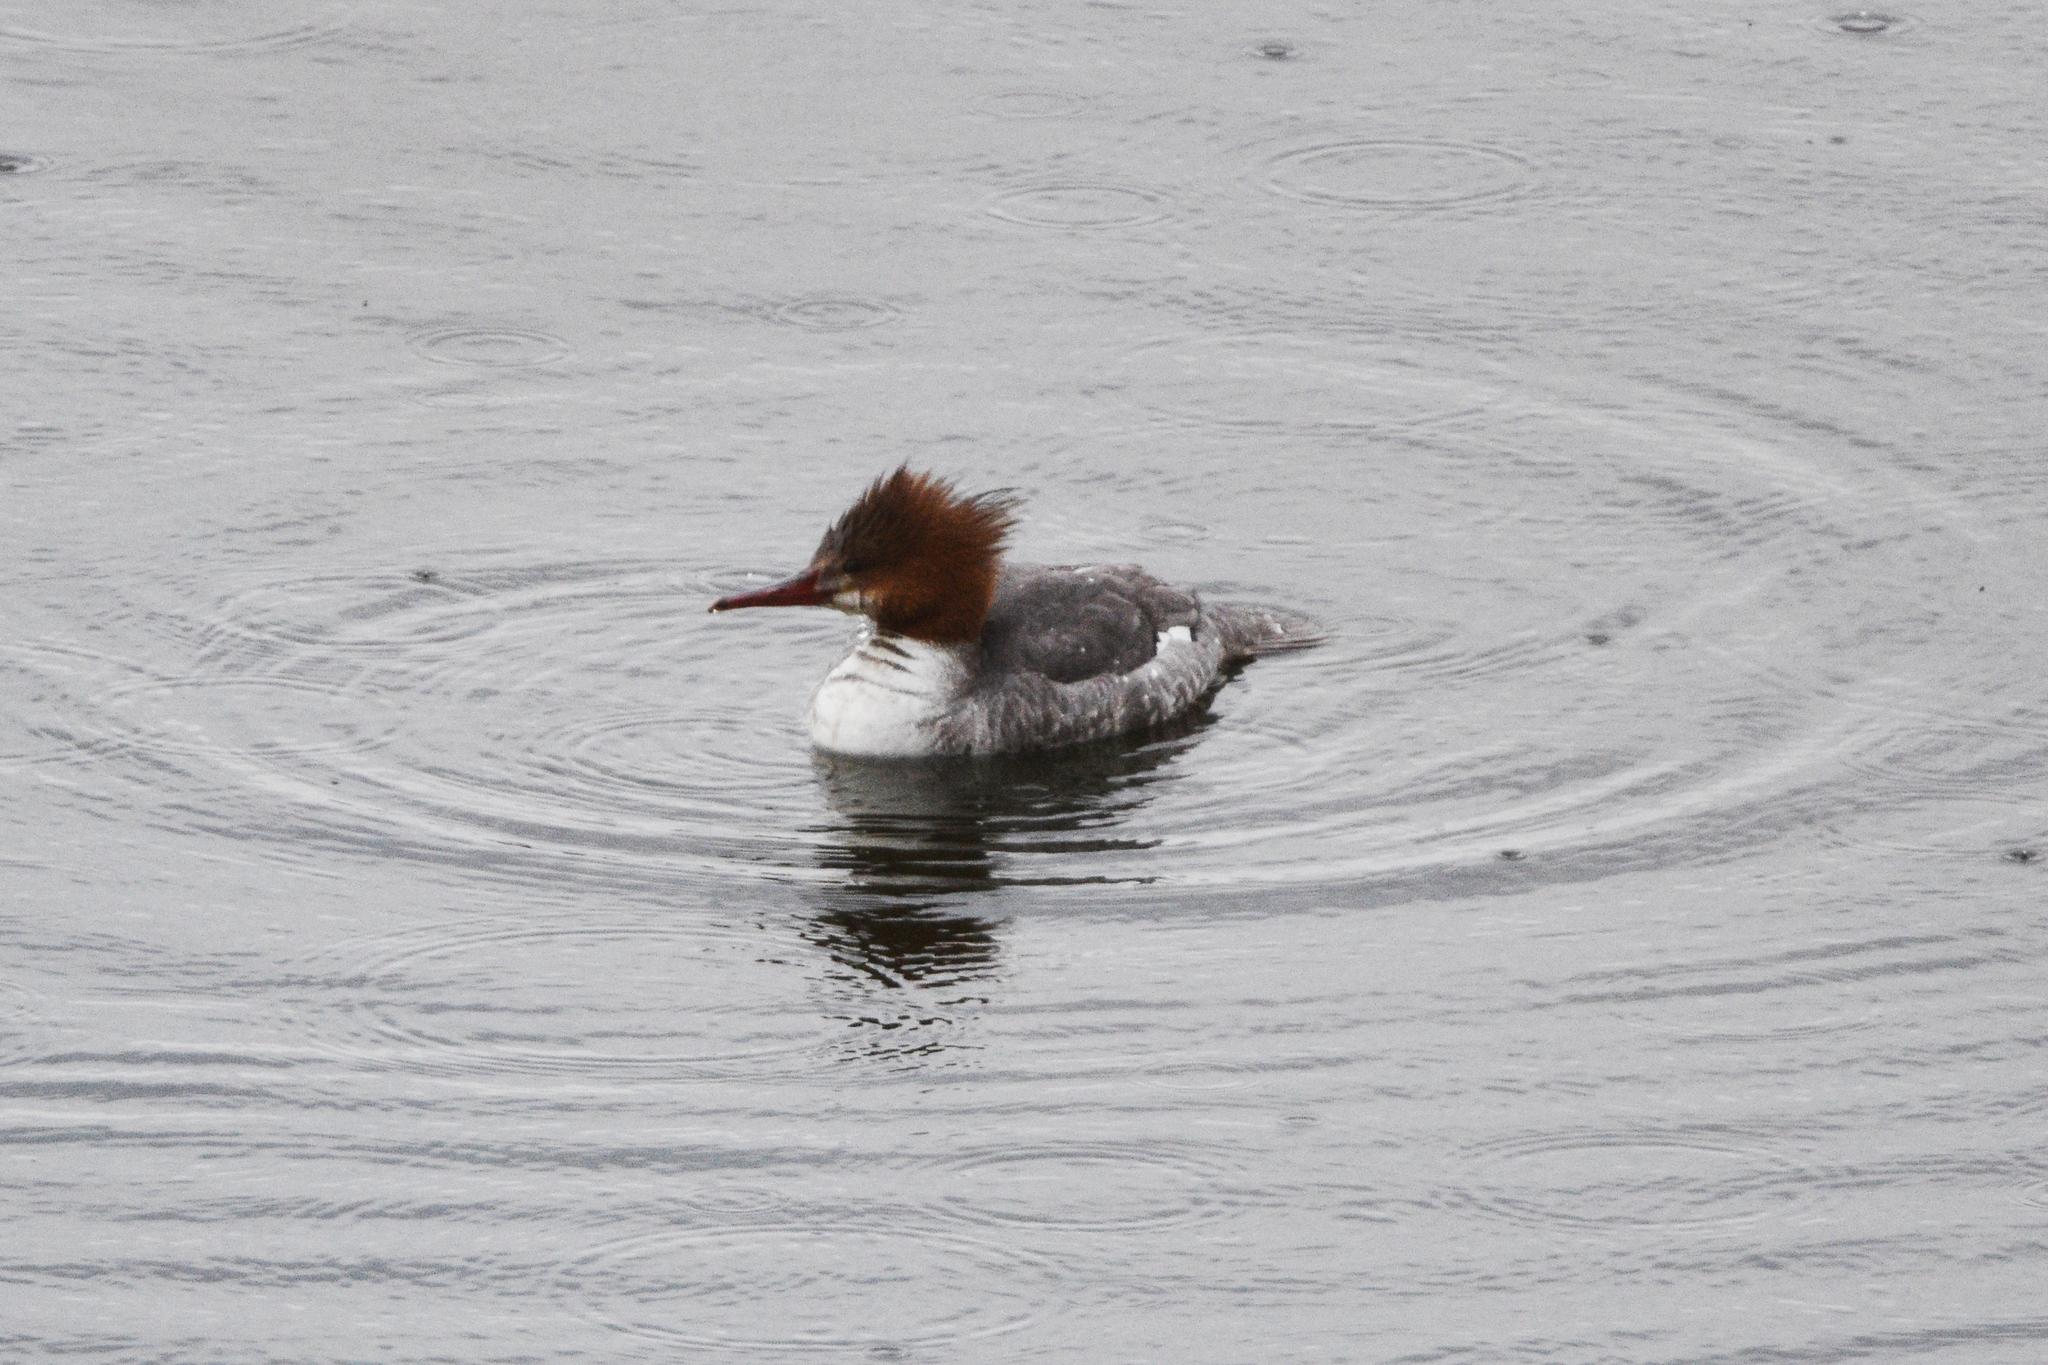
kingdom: Animalia
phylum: Chordata
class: Aves
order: Anseriformes
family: Anatidae
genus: Mergus
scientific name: Mergus merganser
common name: Common merganser
